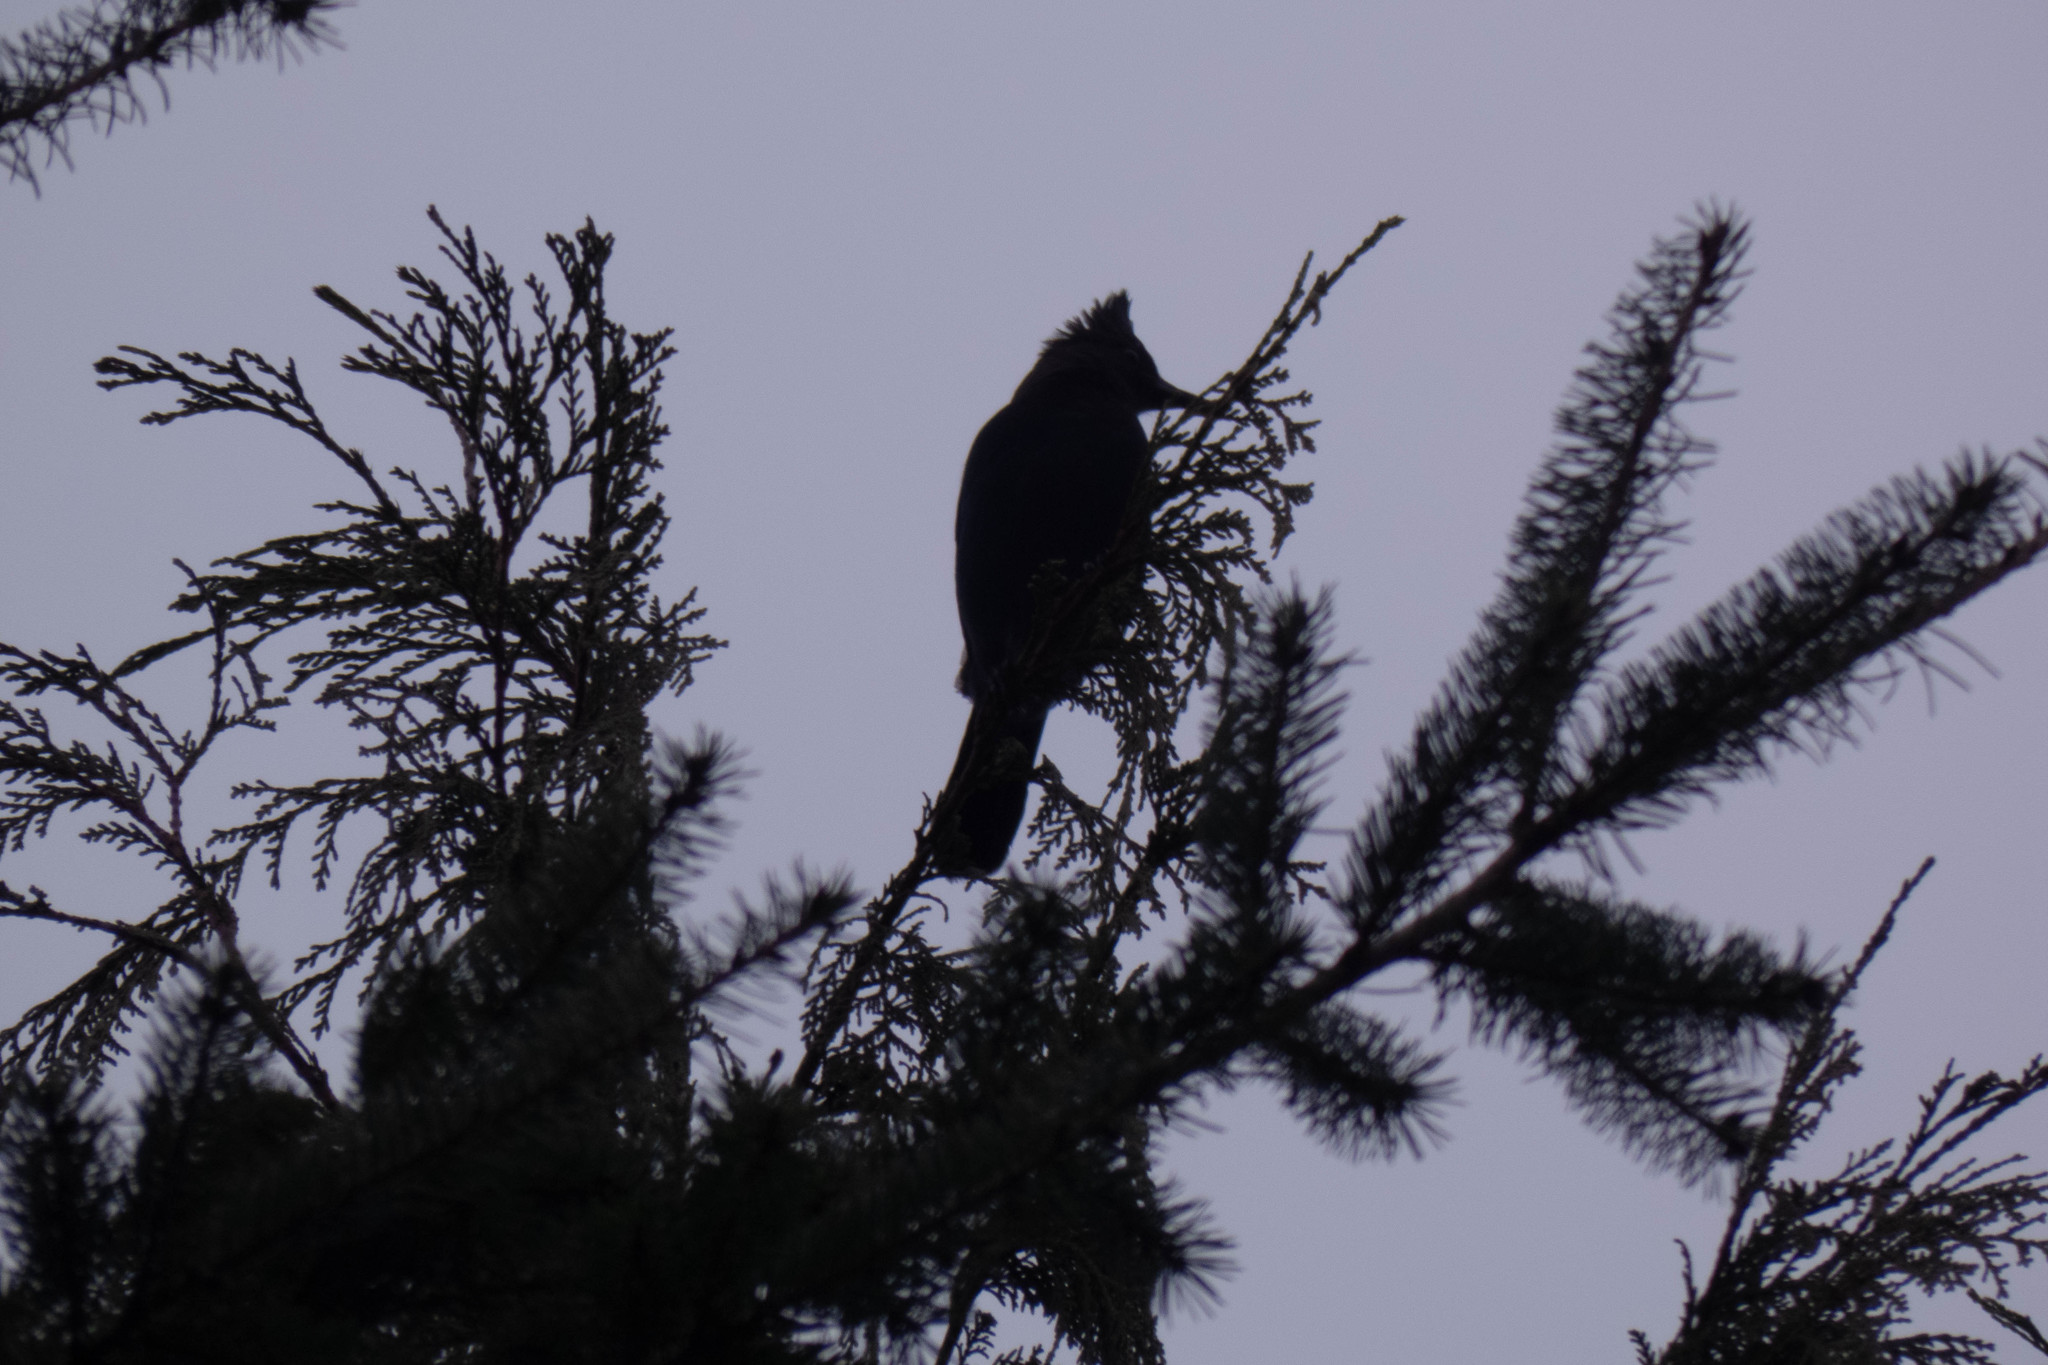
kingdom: Animalia
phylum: Chordata
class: Aves
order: Passeriformes
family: Corvidae
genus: Cyanocitta
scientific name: Cyanocitta stelleri
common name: Steller's jay
